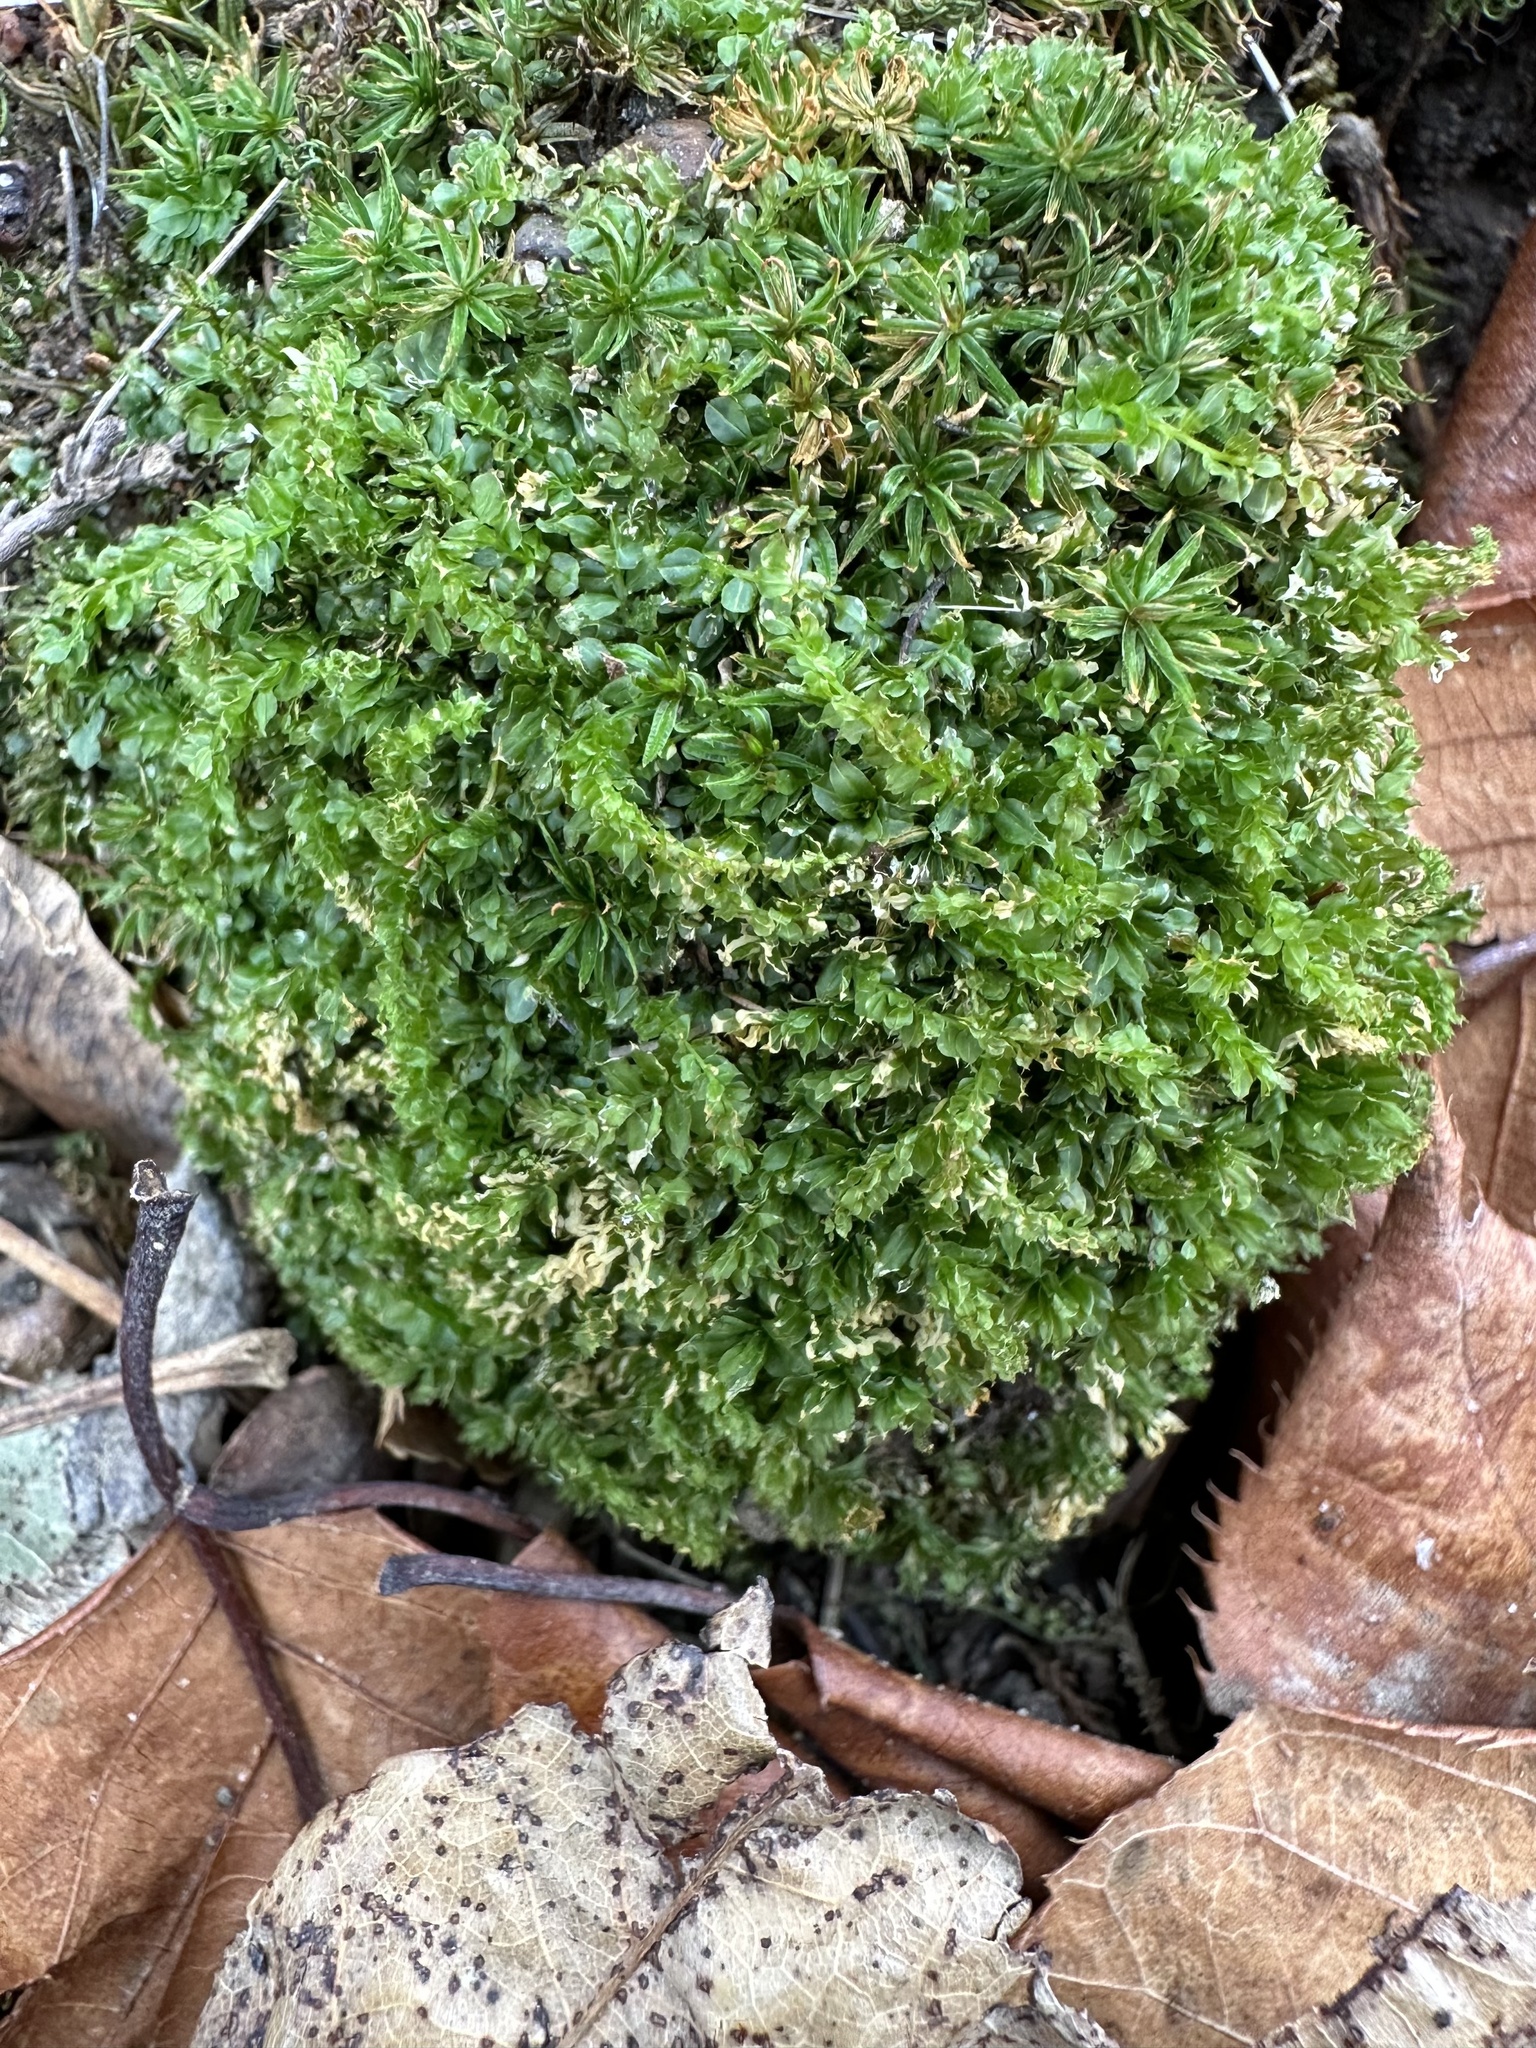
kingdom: Plantae
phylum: Bryophyta
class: Bryopsida
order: Bryales
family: Mniaceae
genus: Plagiomnium
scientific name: Plagiomnium cuspidatum
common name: Woodsy leafy moss
